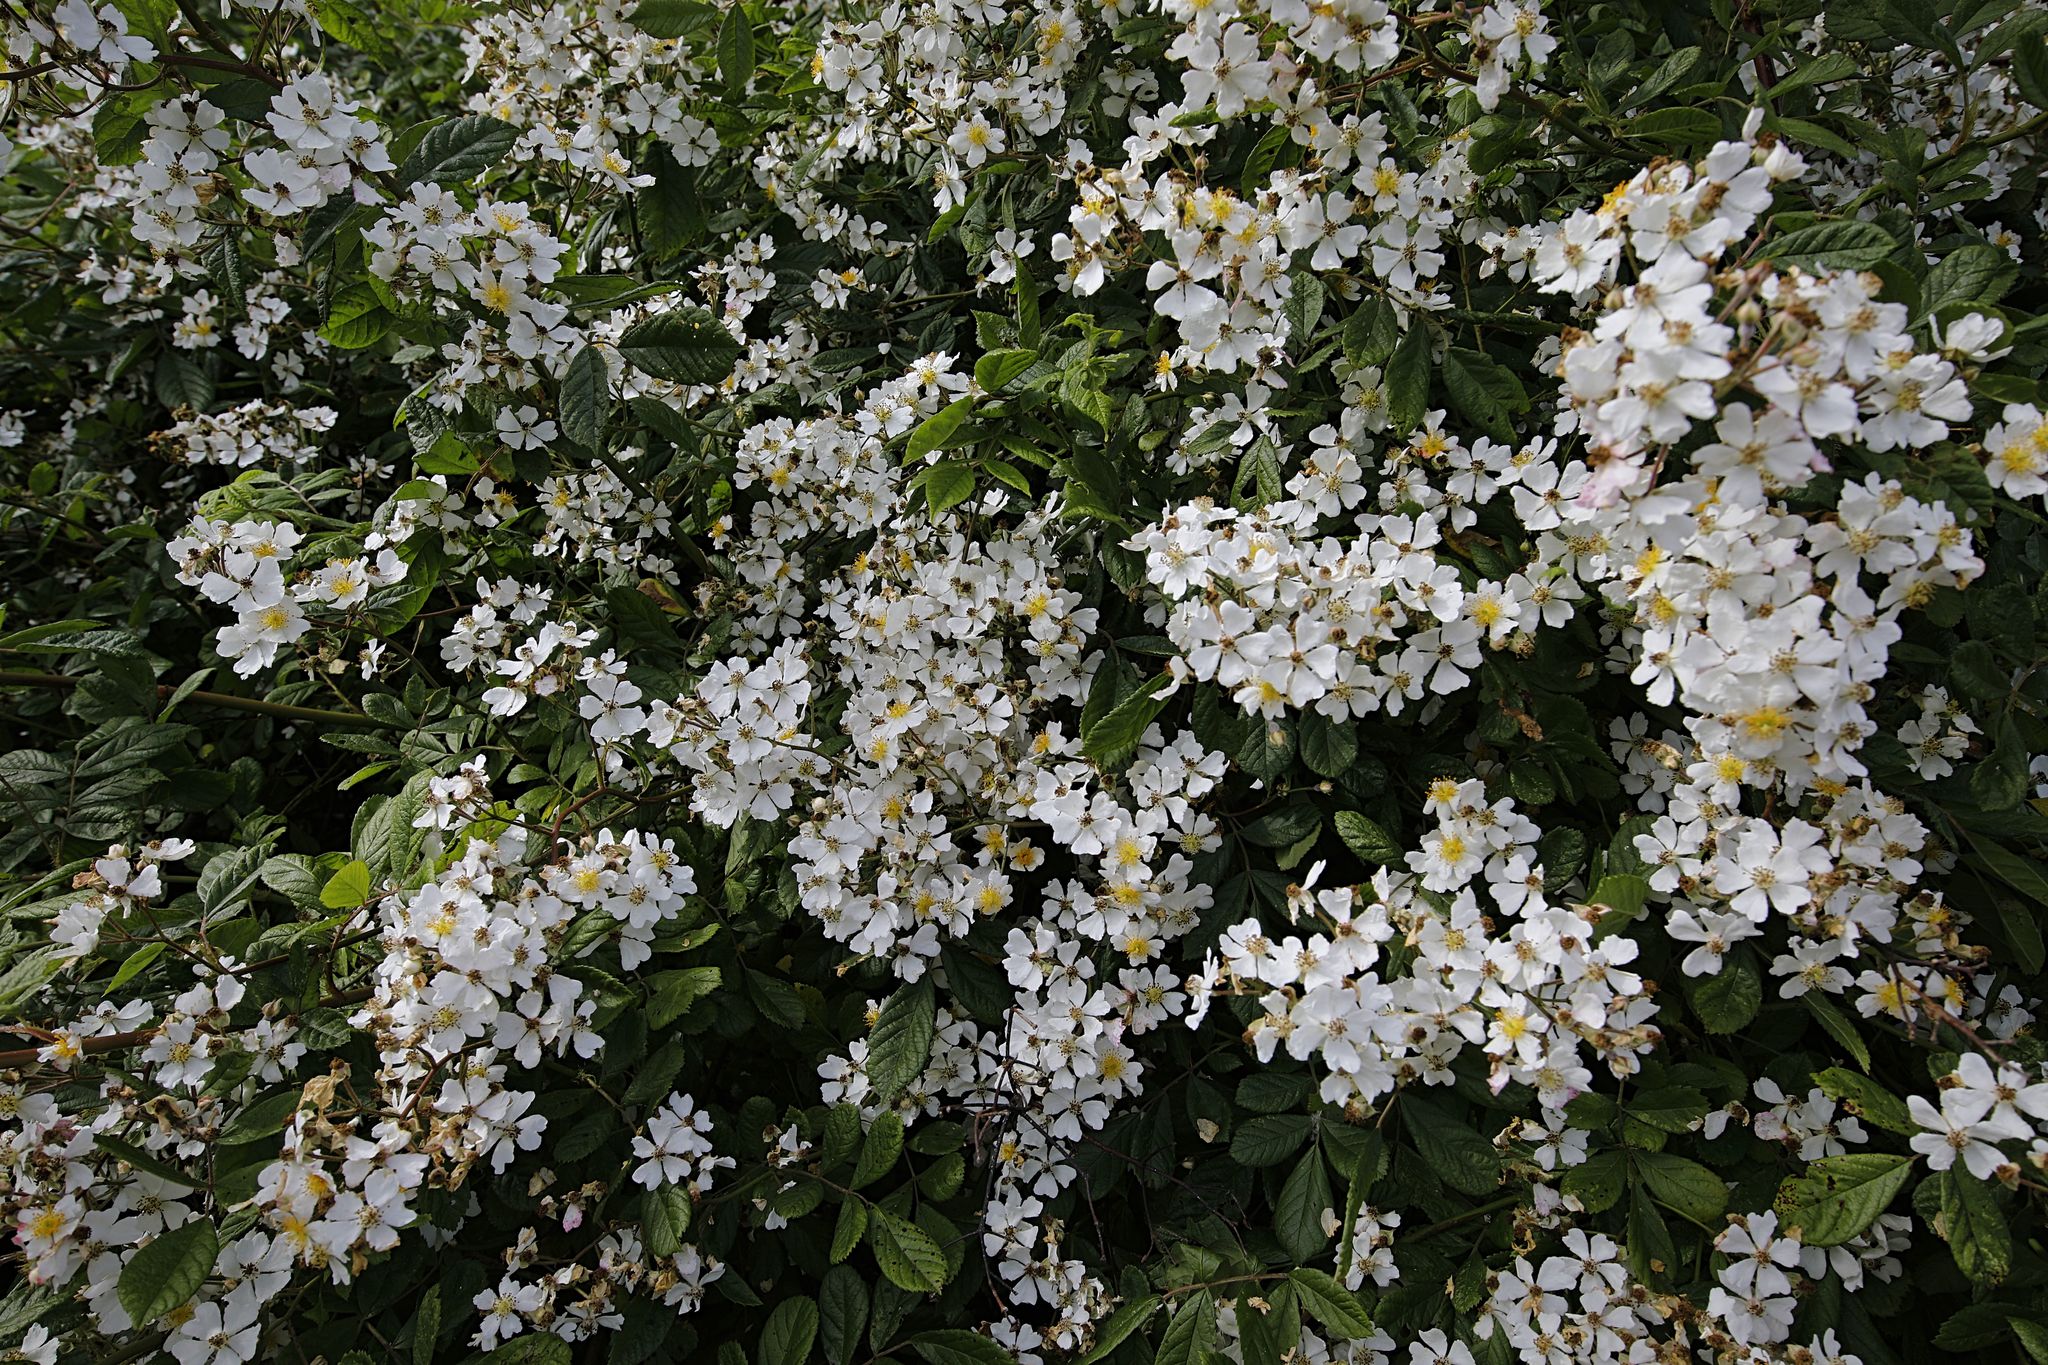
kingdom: Plantae
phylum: Tracheophyta
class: Magnoliopsida
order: Rosales
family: Rosaceae
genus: Rosa
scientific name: Rosa multiflora
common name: Multiflora rose
